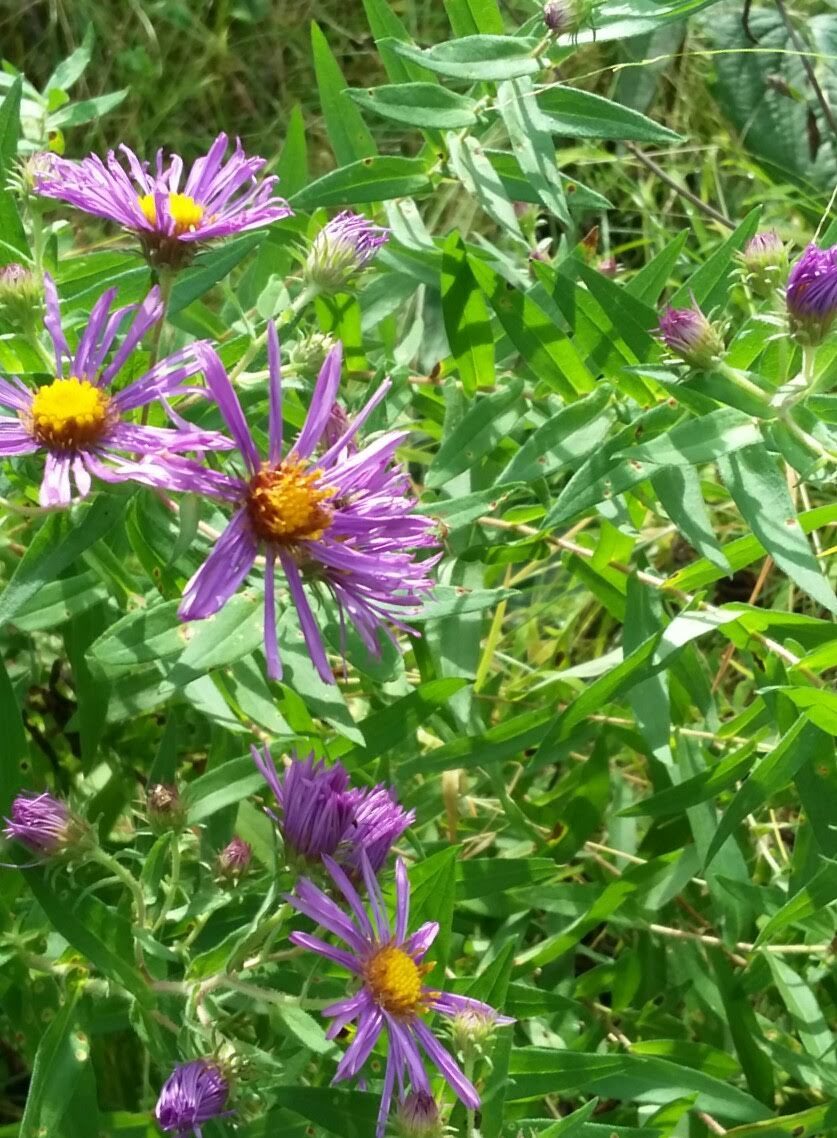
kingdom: Plantae
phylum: Tracheophyta
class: Magnoliopsida
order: Asterales
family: Asteraceae
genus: Symphyotrichum
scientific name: Symphyotrichum novae-angliae
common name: Michaelmas daisy
